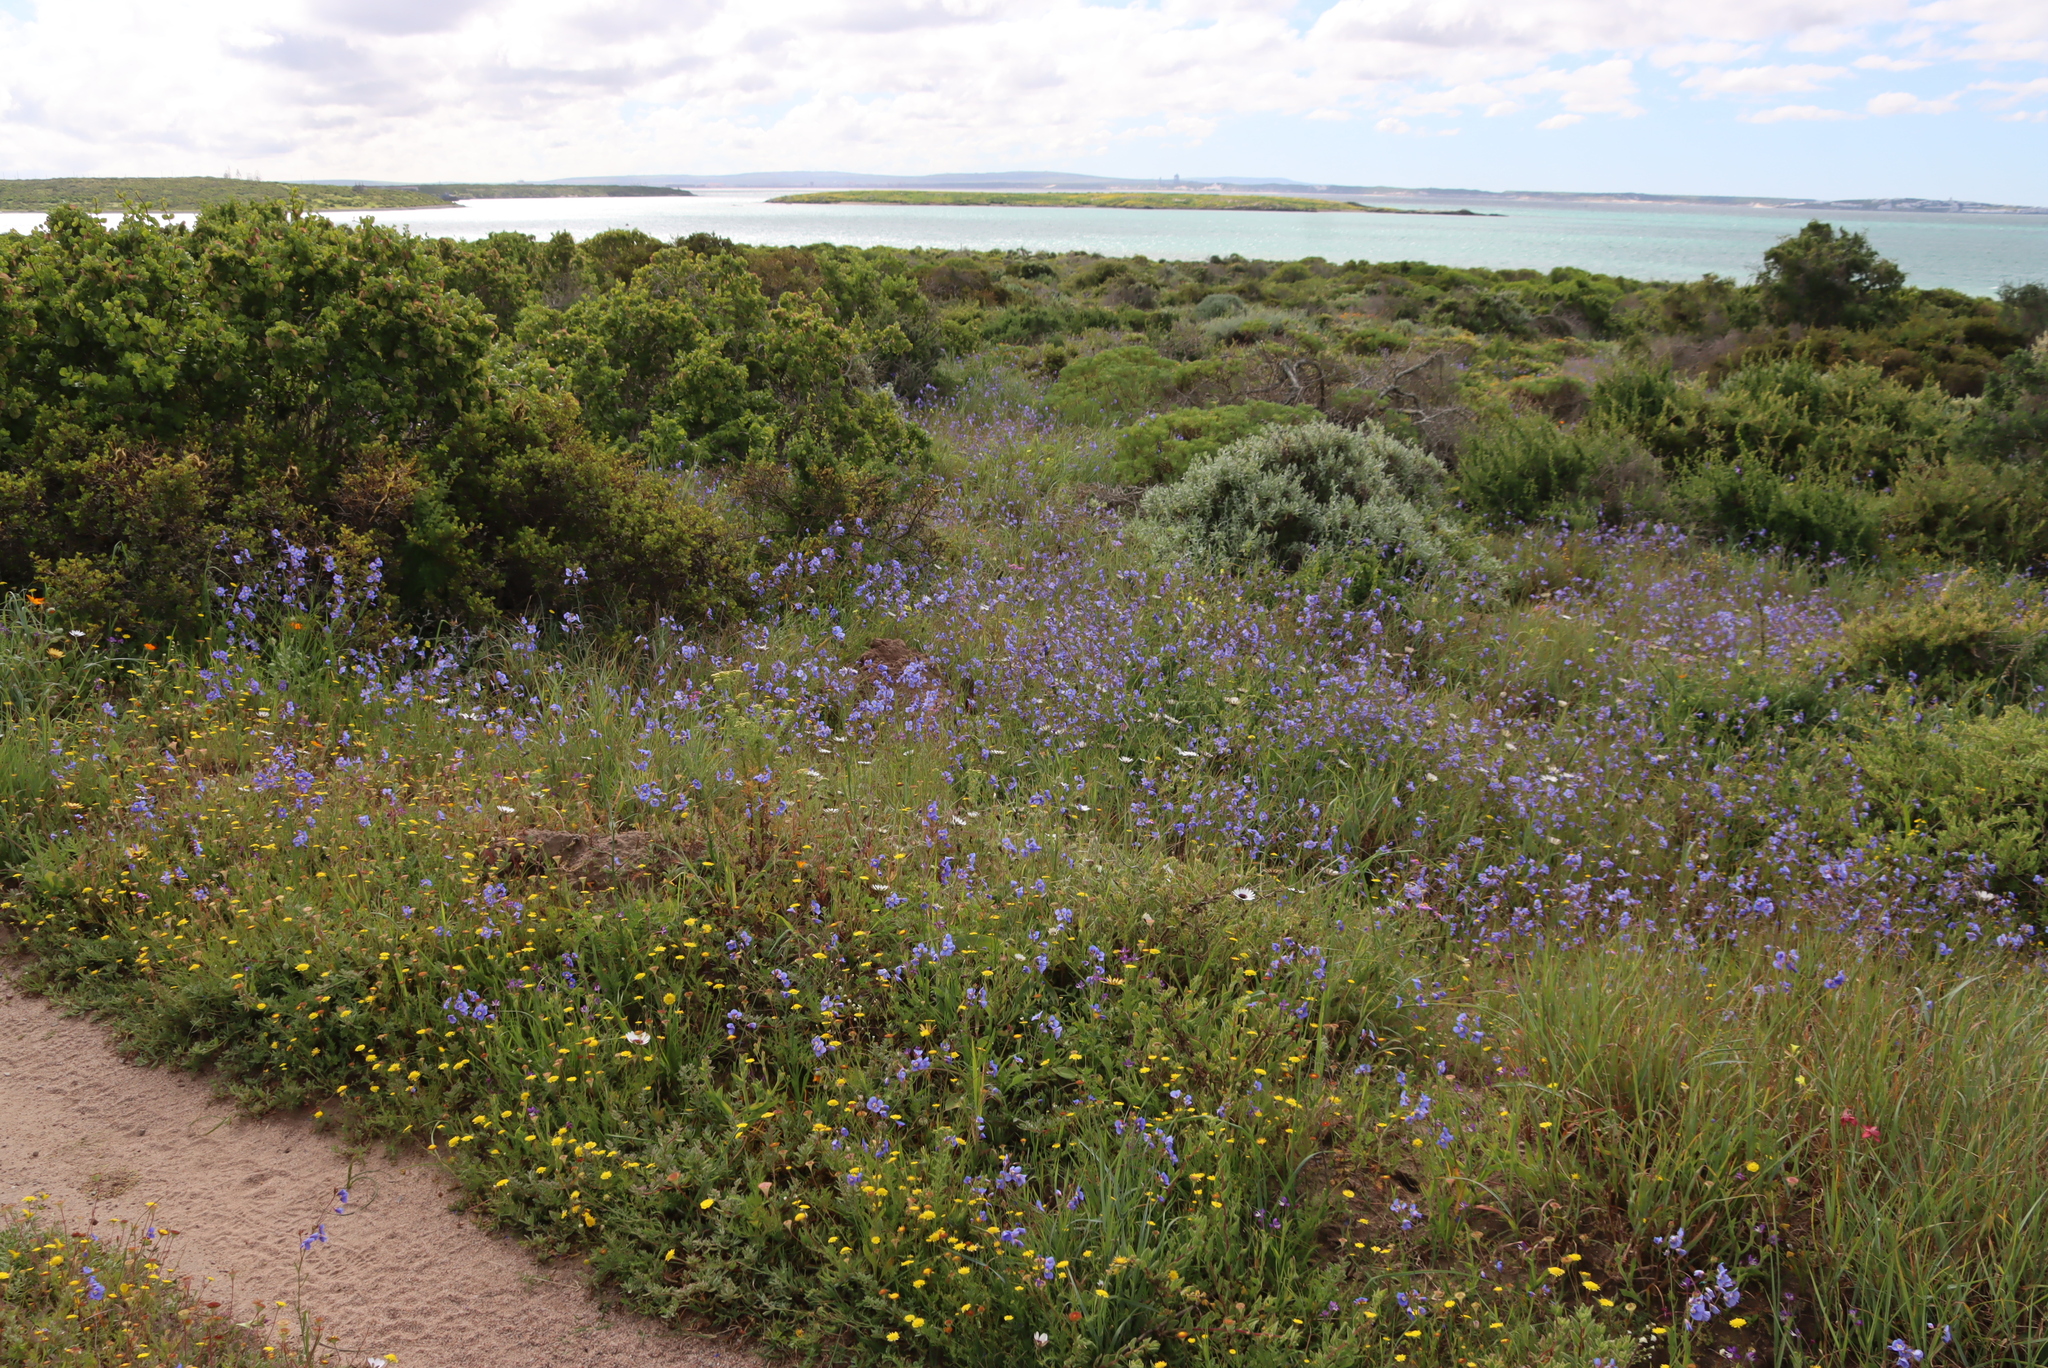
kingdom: Plantae
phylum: Tracheophyta
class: Magnoliopsida
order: Brassicales
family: Brassicaceae
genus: Heliophila
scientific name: Heliophila coronopifolia
